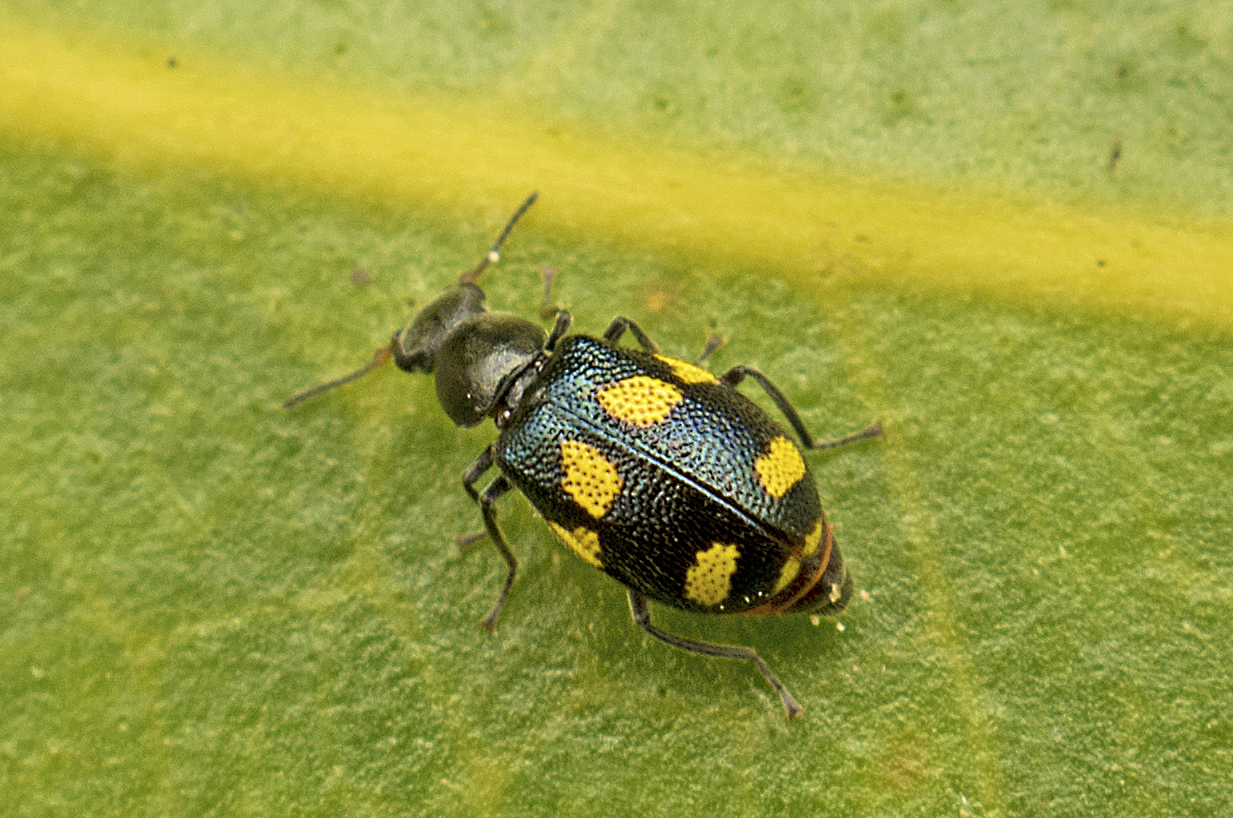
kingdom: Animalia
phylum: Arthropoda
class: Insecta
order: Coleoptera
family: Melyridae
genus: Dicranolaius
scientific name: Dicranolaius
